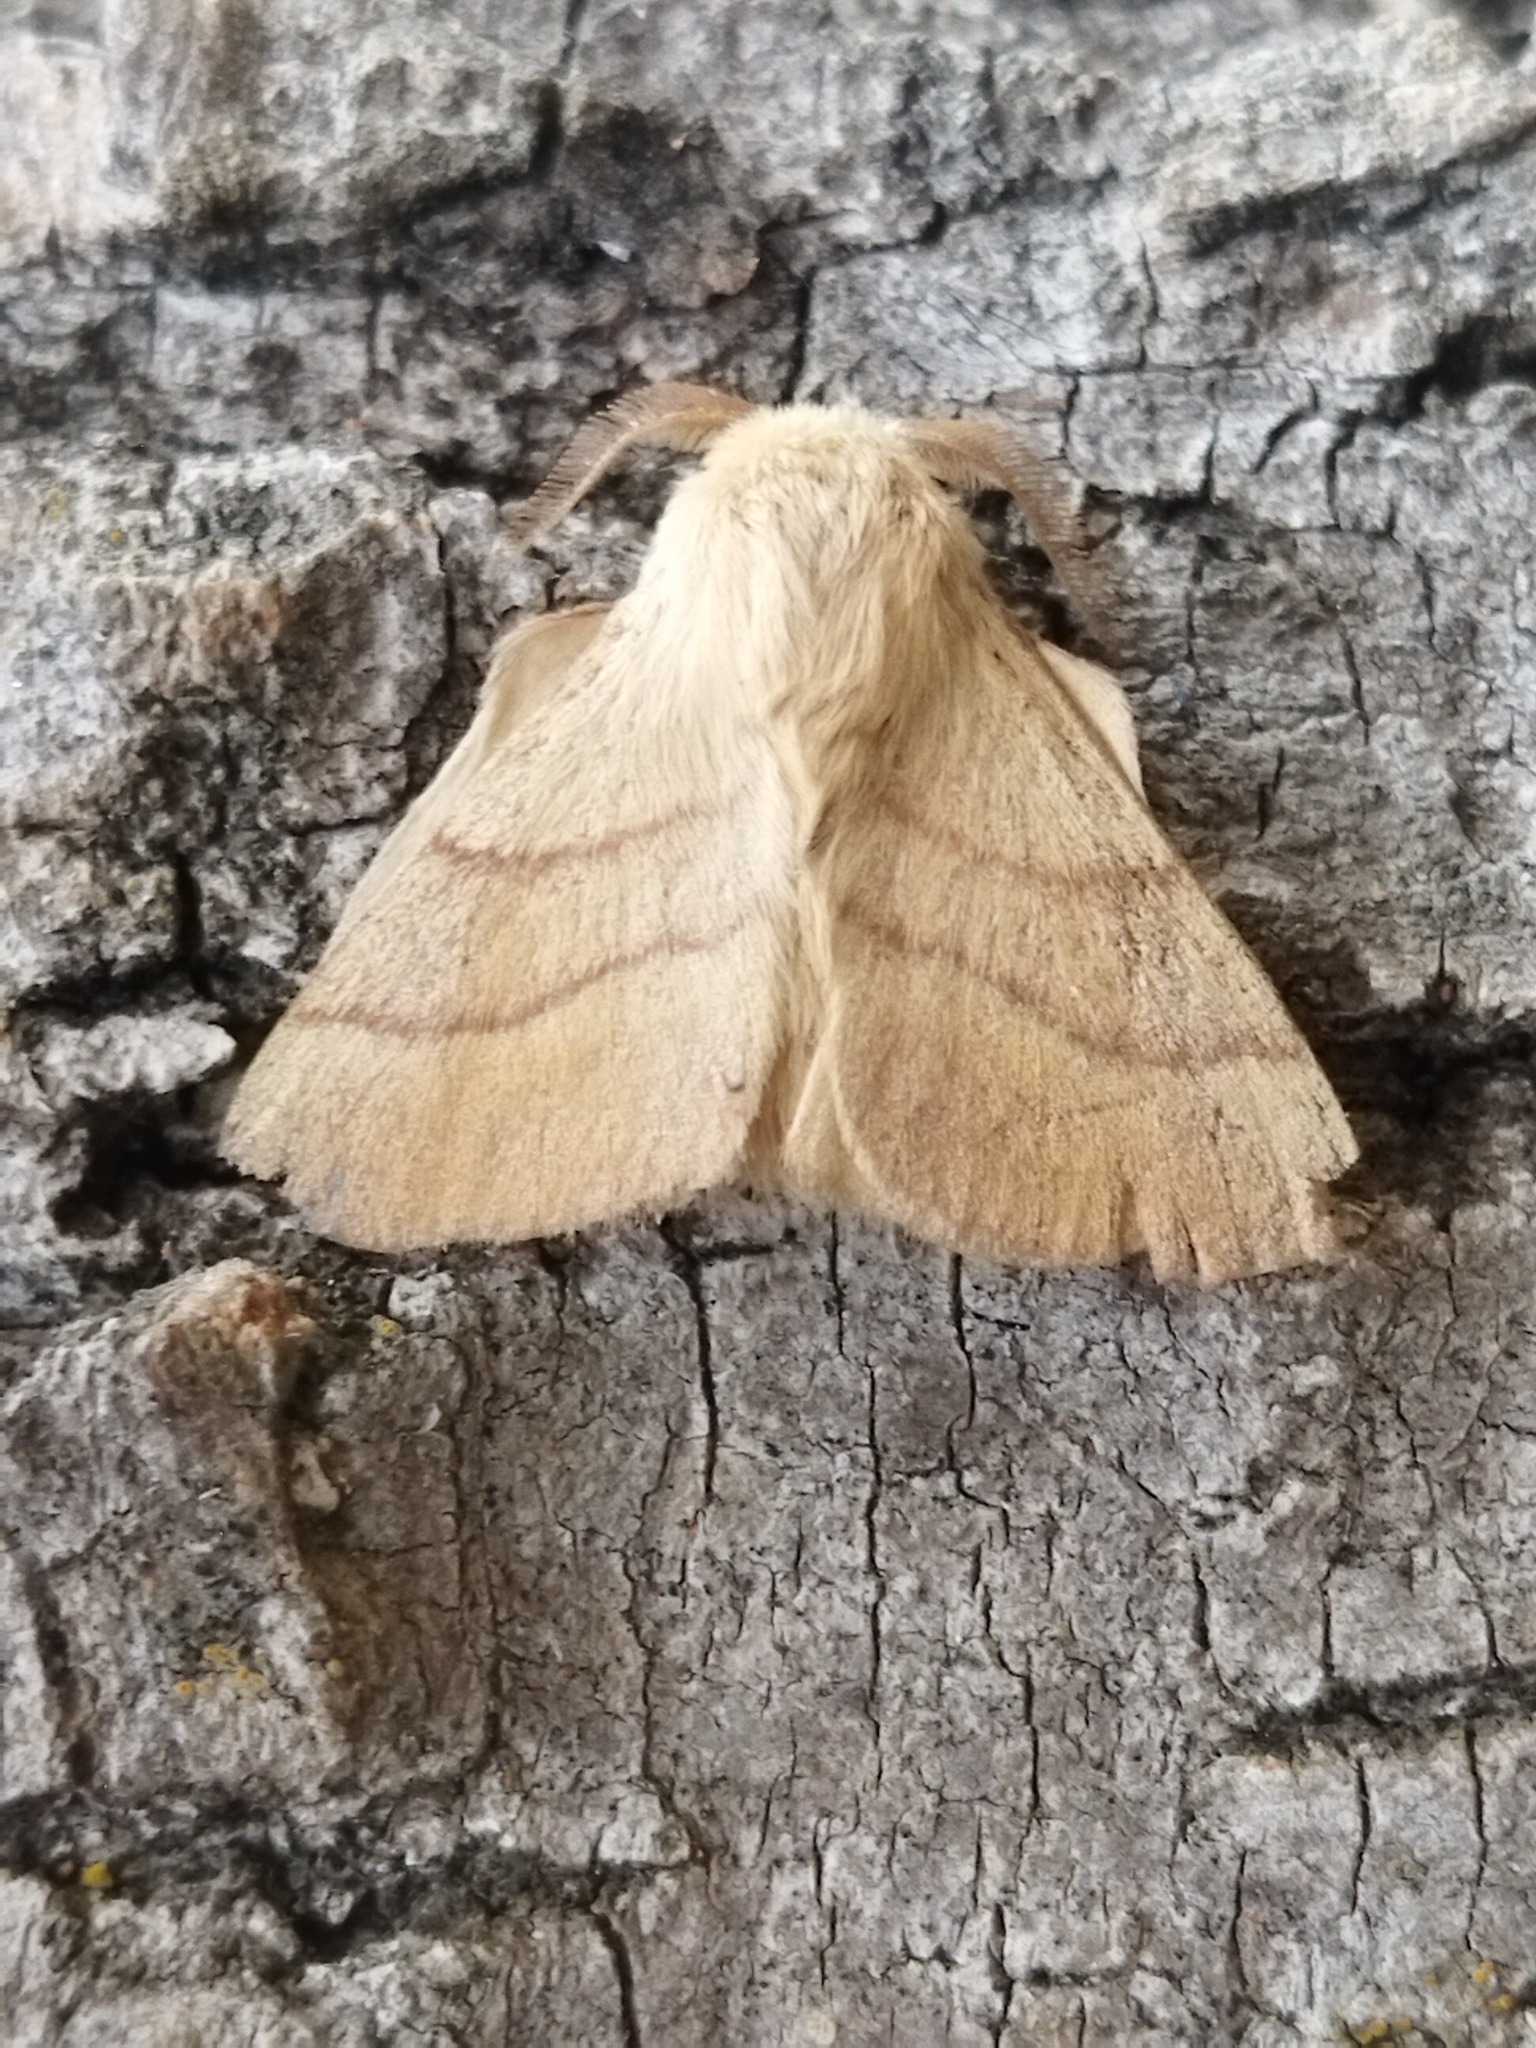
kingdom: Animalia
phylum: Arthropoda
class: Insecta
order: Lepidoptera
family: Lasiocampidae
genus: Malacosoma
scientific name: Malacosoma neustria
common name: The lackey
